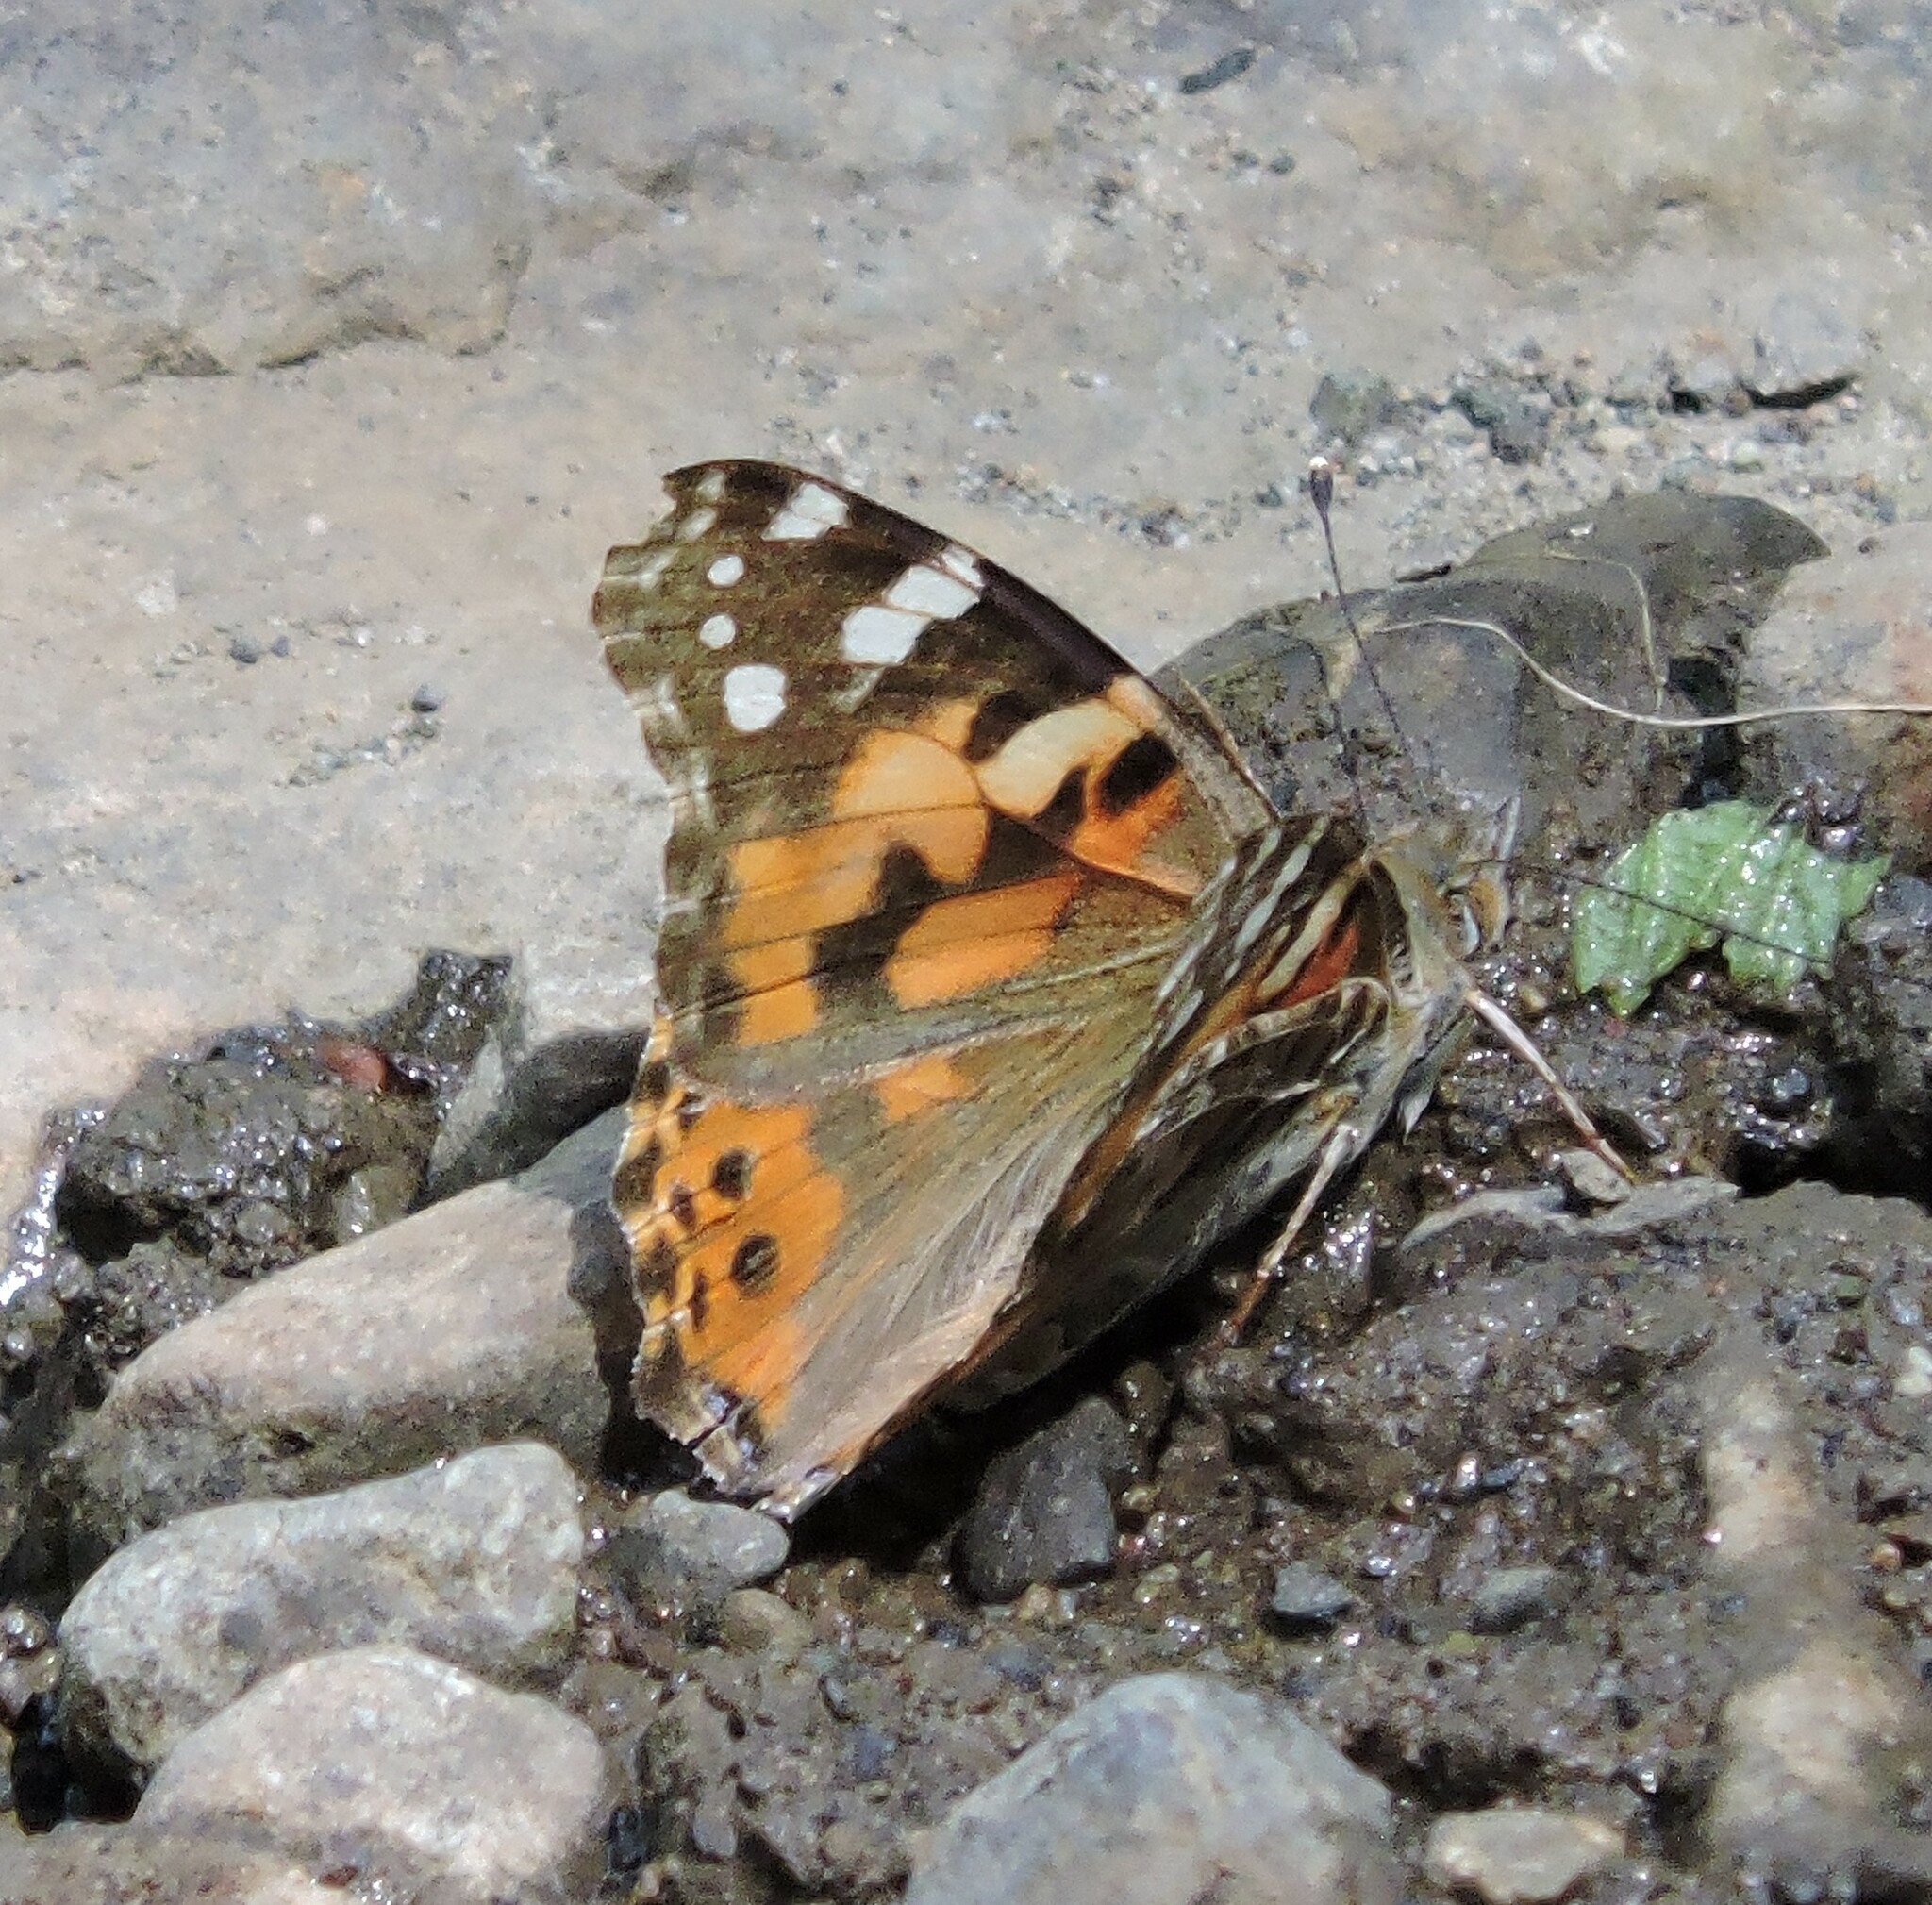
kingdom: Animalia
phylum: Arthropoda
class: Insecta
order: Lepidoptera
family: Nymphalidae
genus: Vanessa
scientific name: Vanessa cardui
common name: Painted lady
